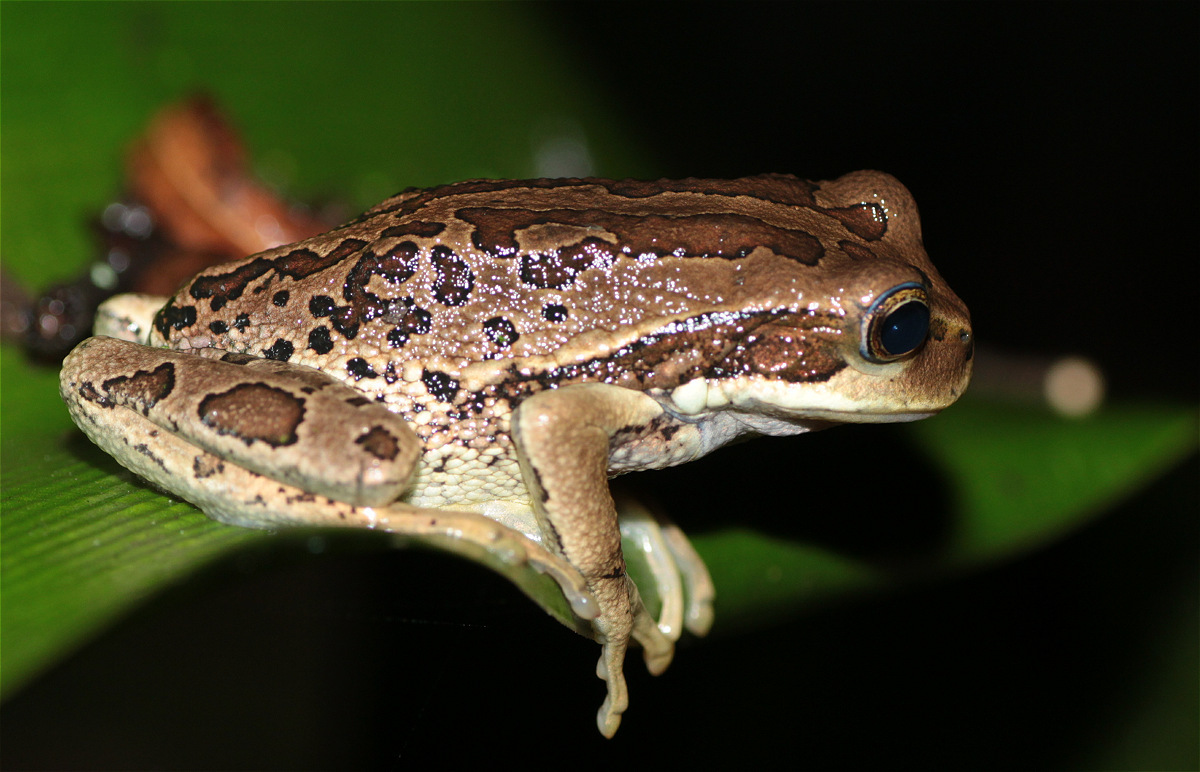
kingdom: Animalia
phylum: Chordata
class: Amphibia
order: Anura
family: Hemiphractidae
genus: Gastrotheca
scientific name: Gastrotheca cuencana
